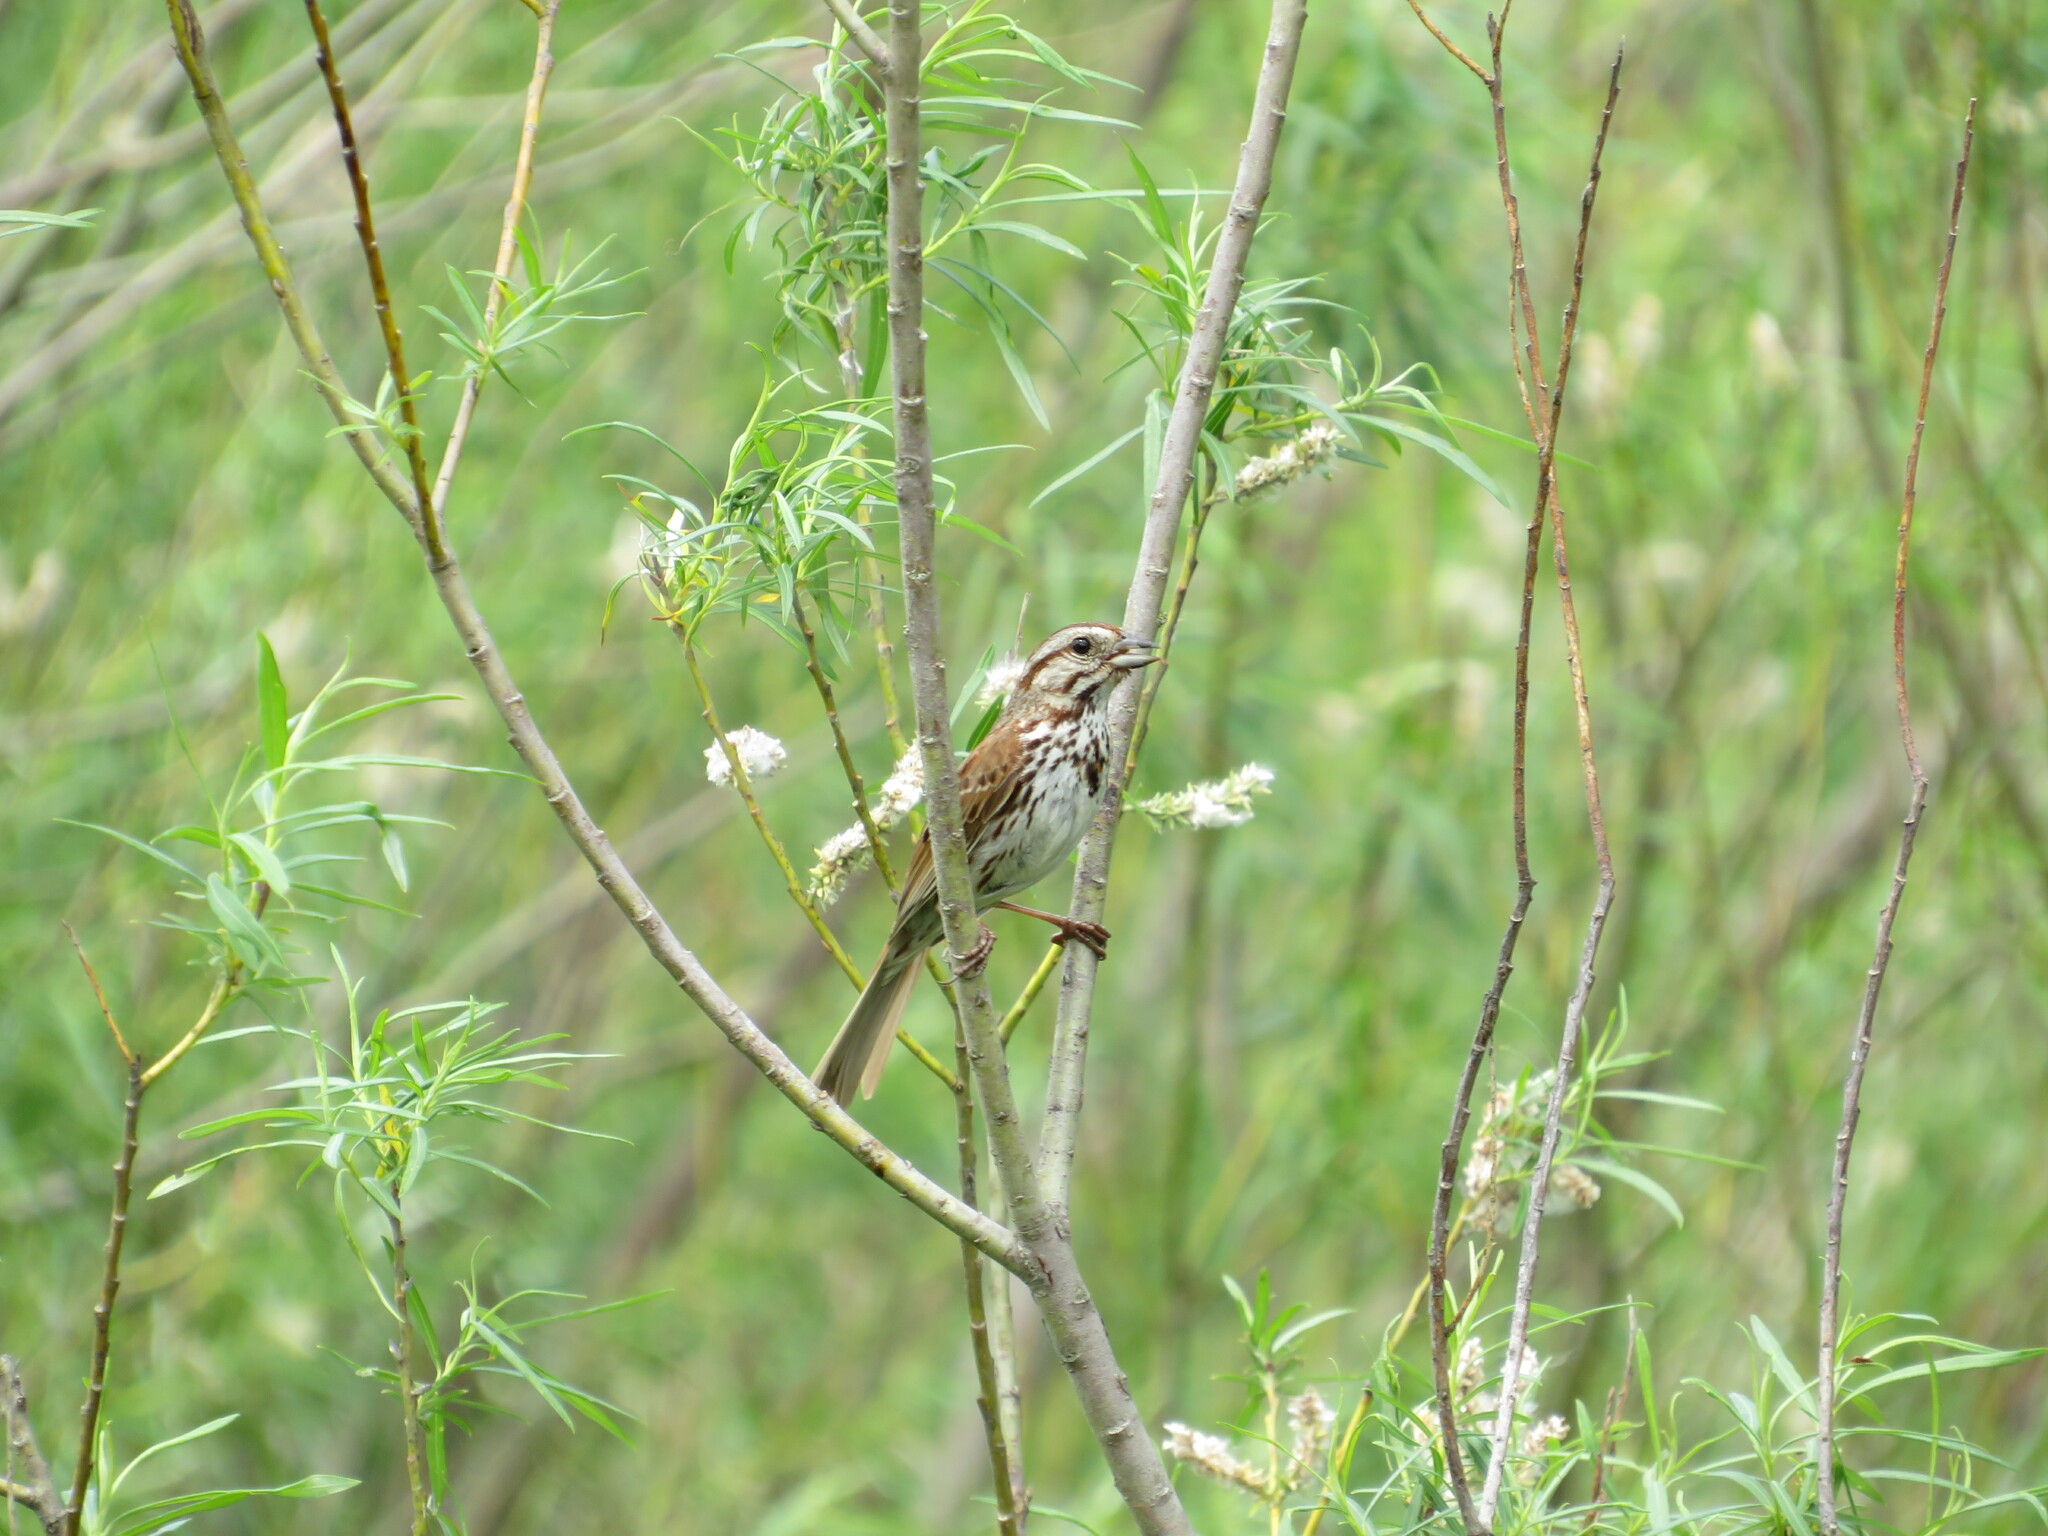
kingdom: Animalia
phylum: Chordata
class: Aves
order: Passeriformes
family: Passerellidae
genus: Melospiza
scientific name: Melospiza melodia
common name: Song sparrow
